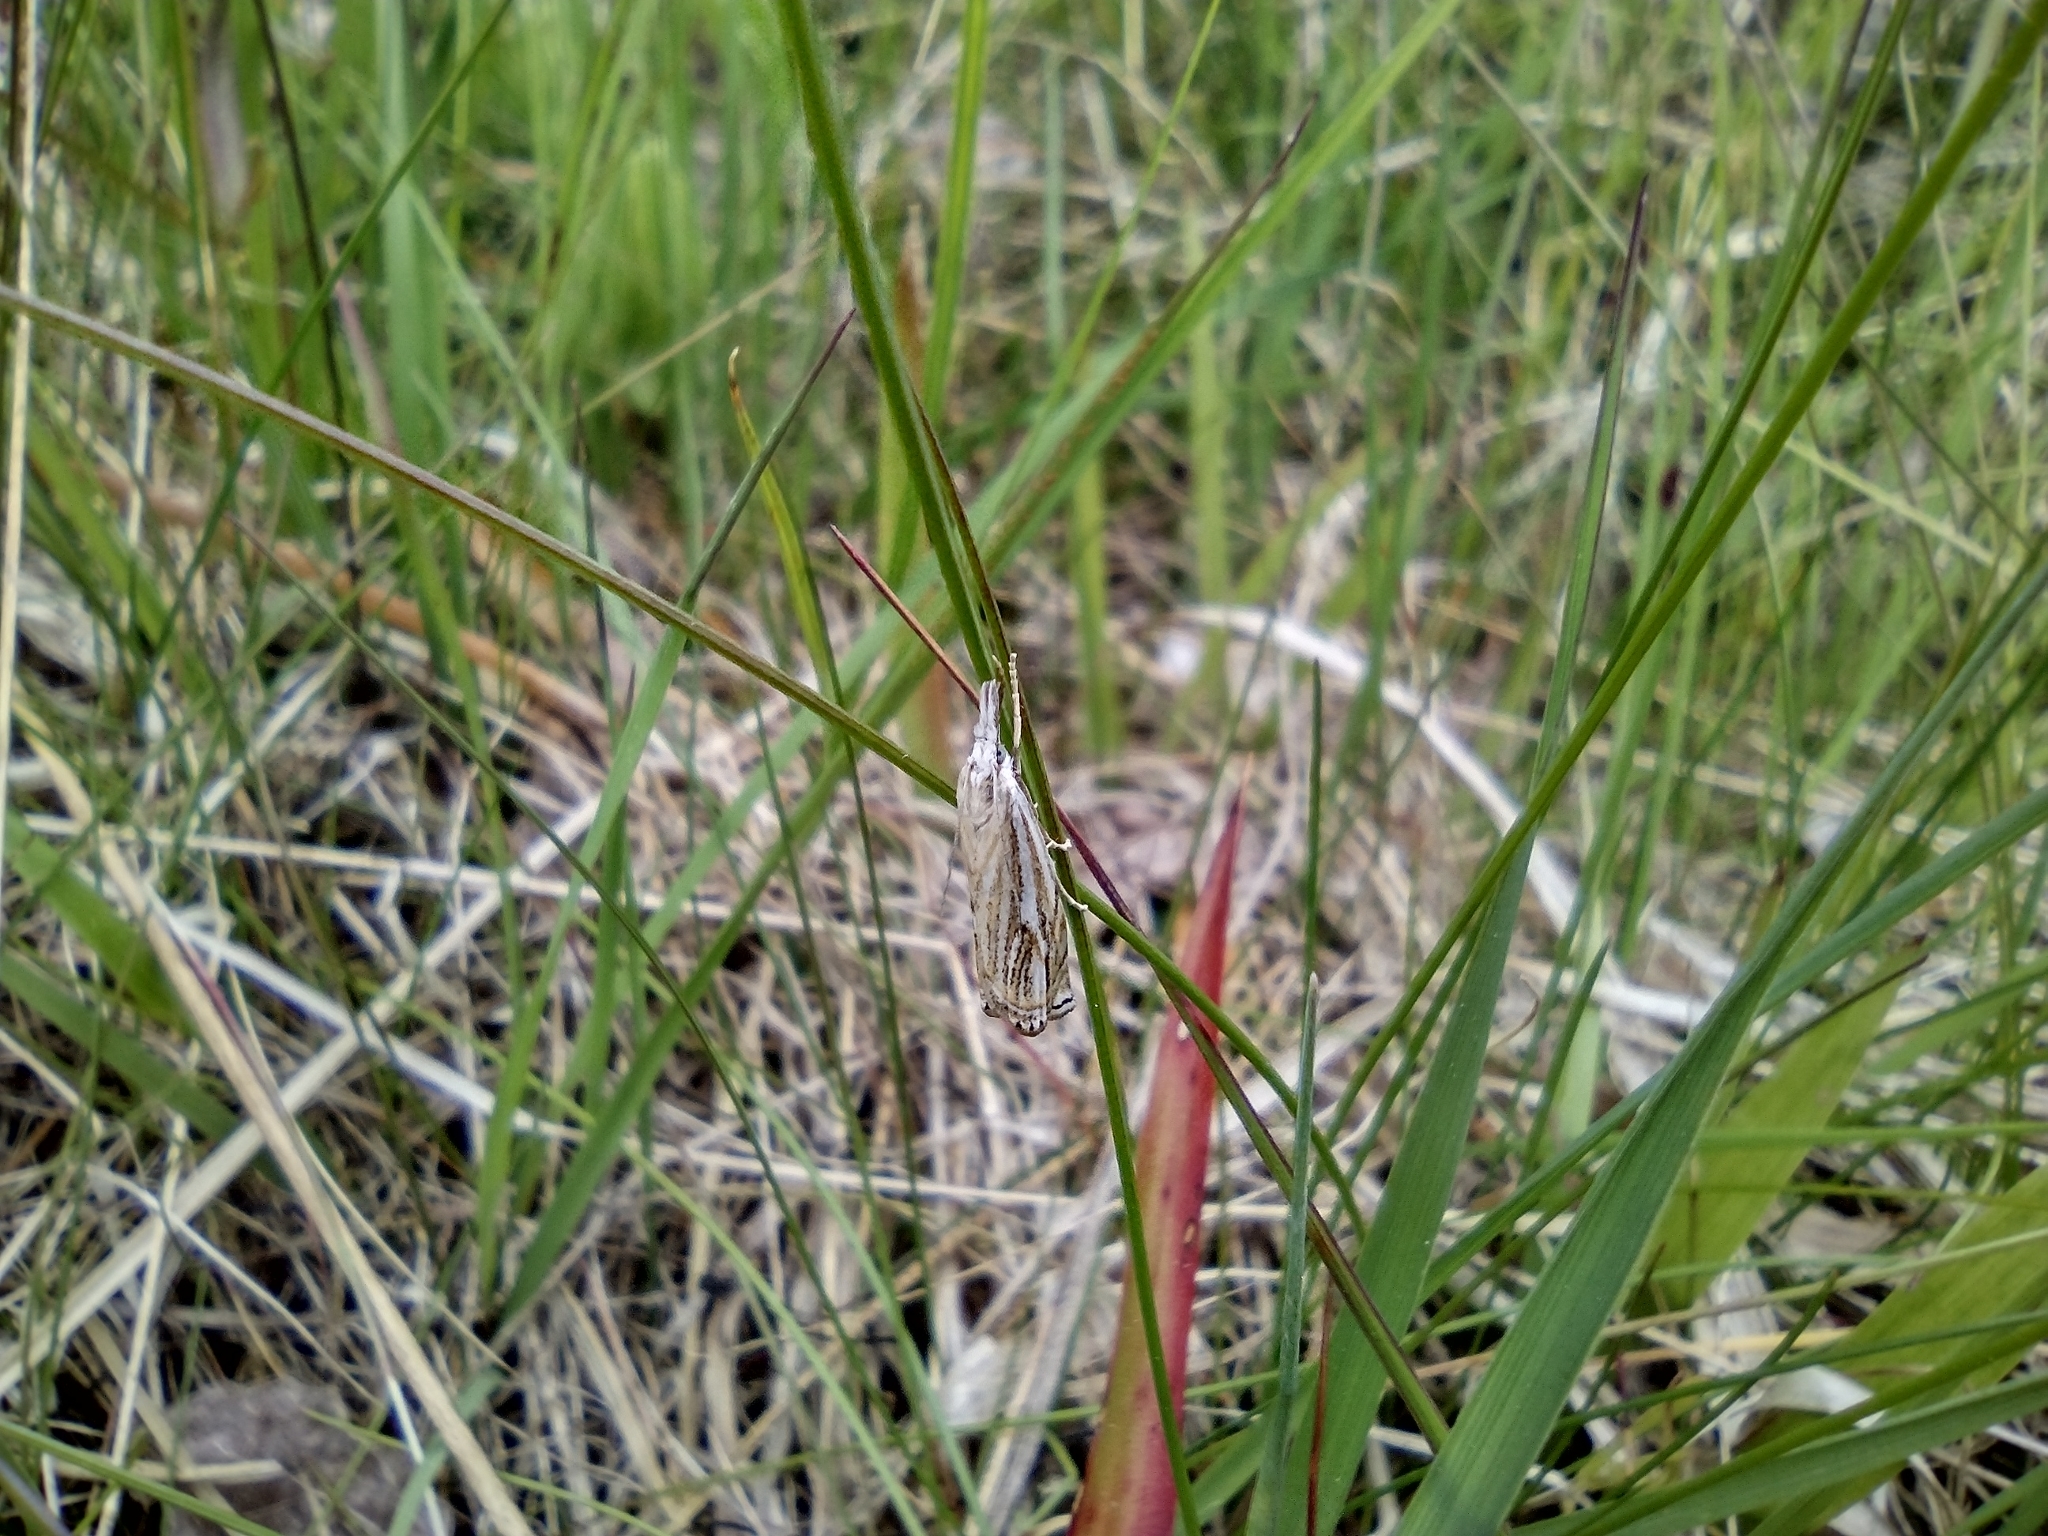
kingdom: Animalia
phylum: Arthropoda
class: Insecta
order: Lepidoptera
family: Crambidae
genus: Crambus
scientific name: Crambus nemorella
